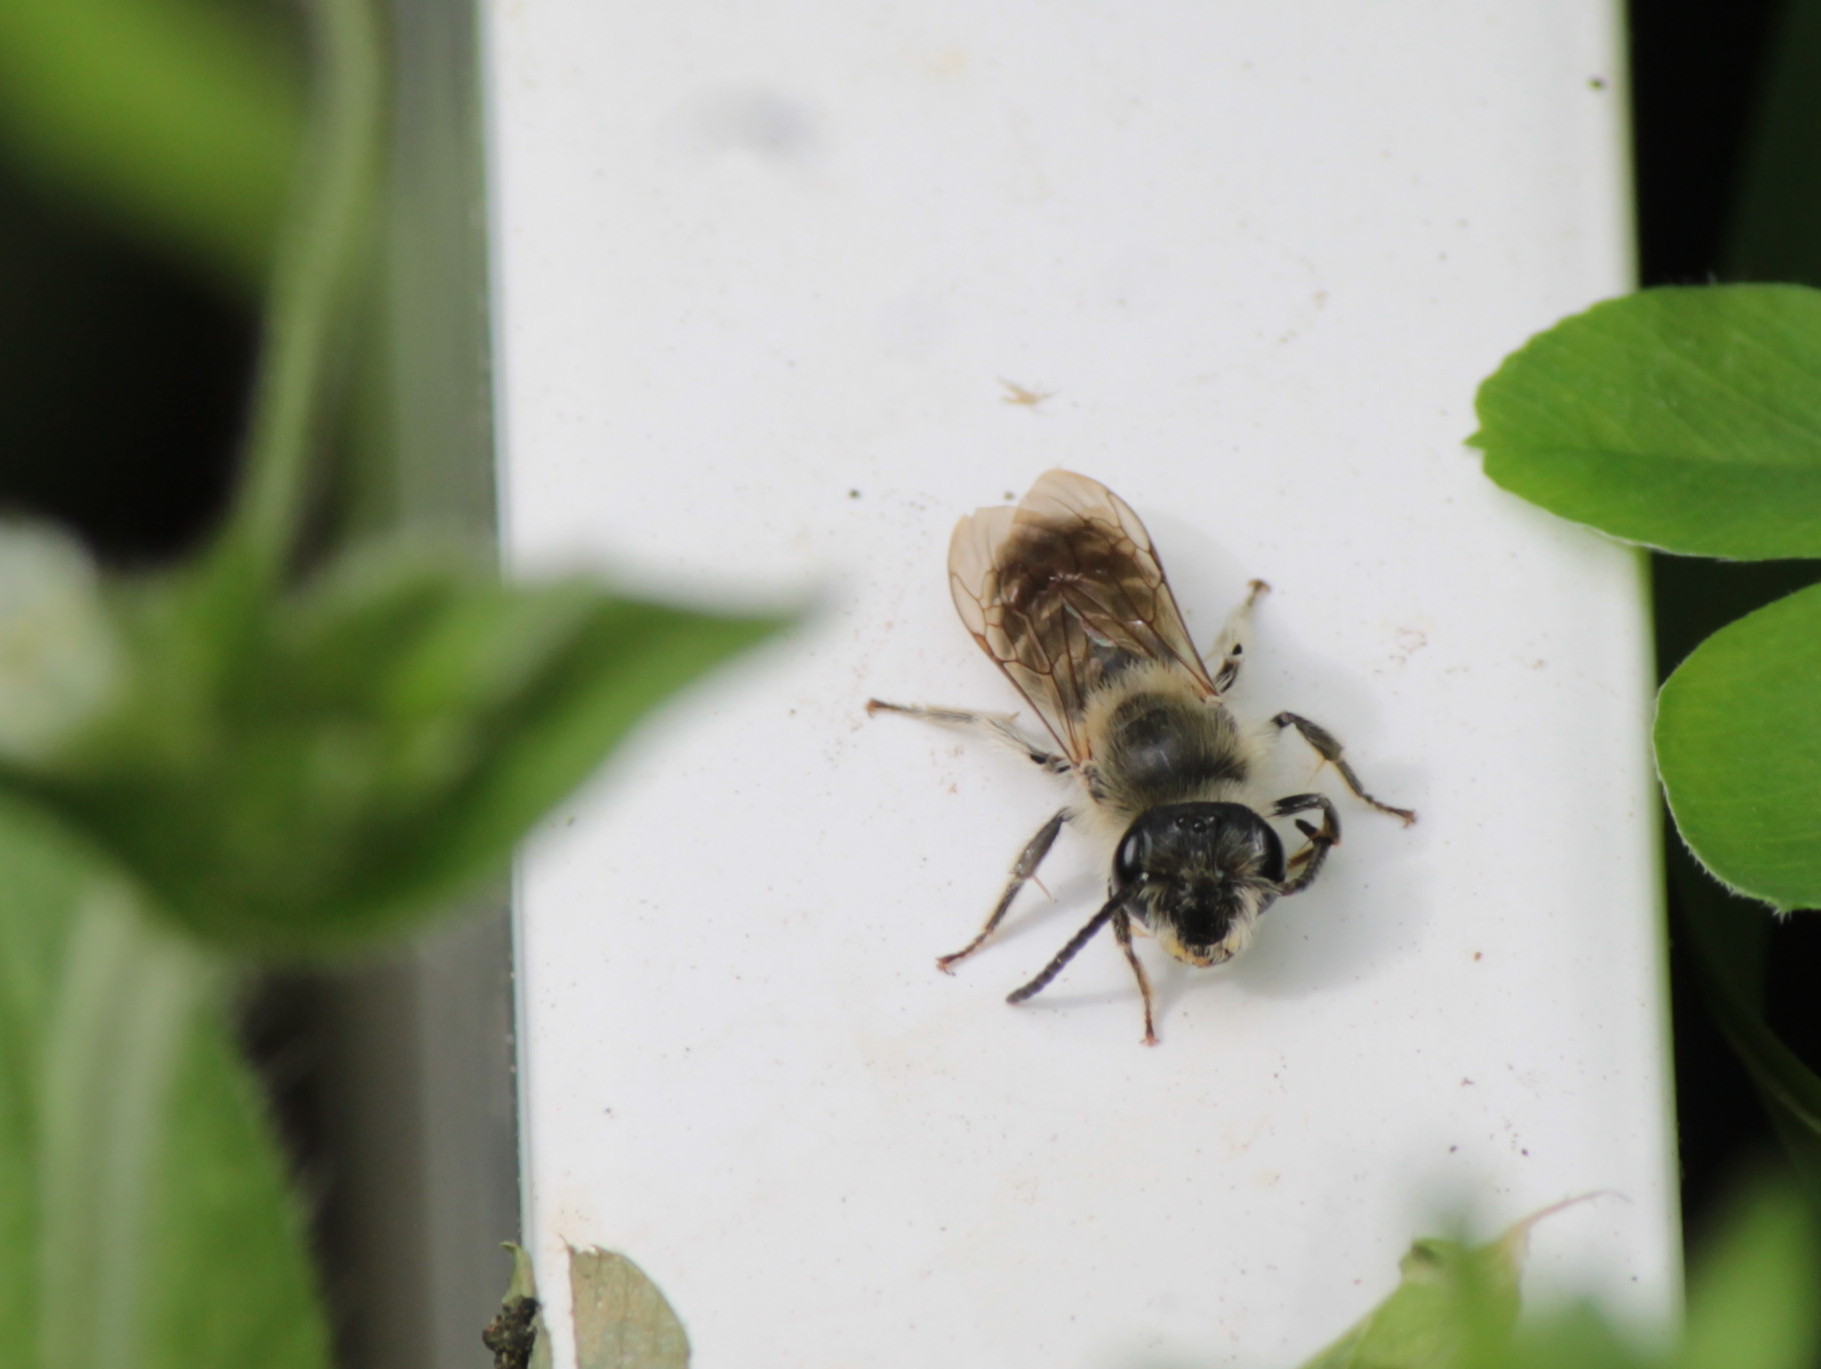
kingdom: Animalia
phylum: Arthropoda
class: Insecta
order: Hymenoptera
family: Andrenidae
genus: Andrena
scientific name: Andrena wilkella
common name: Wilke's mining bee
